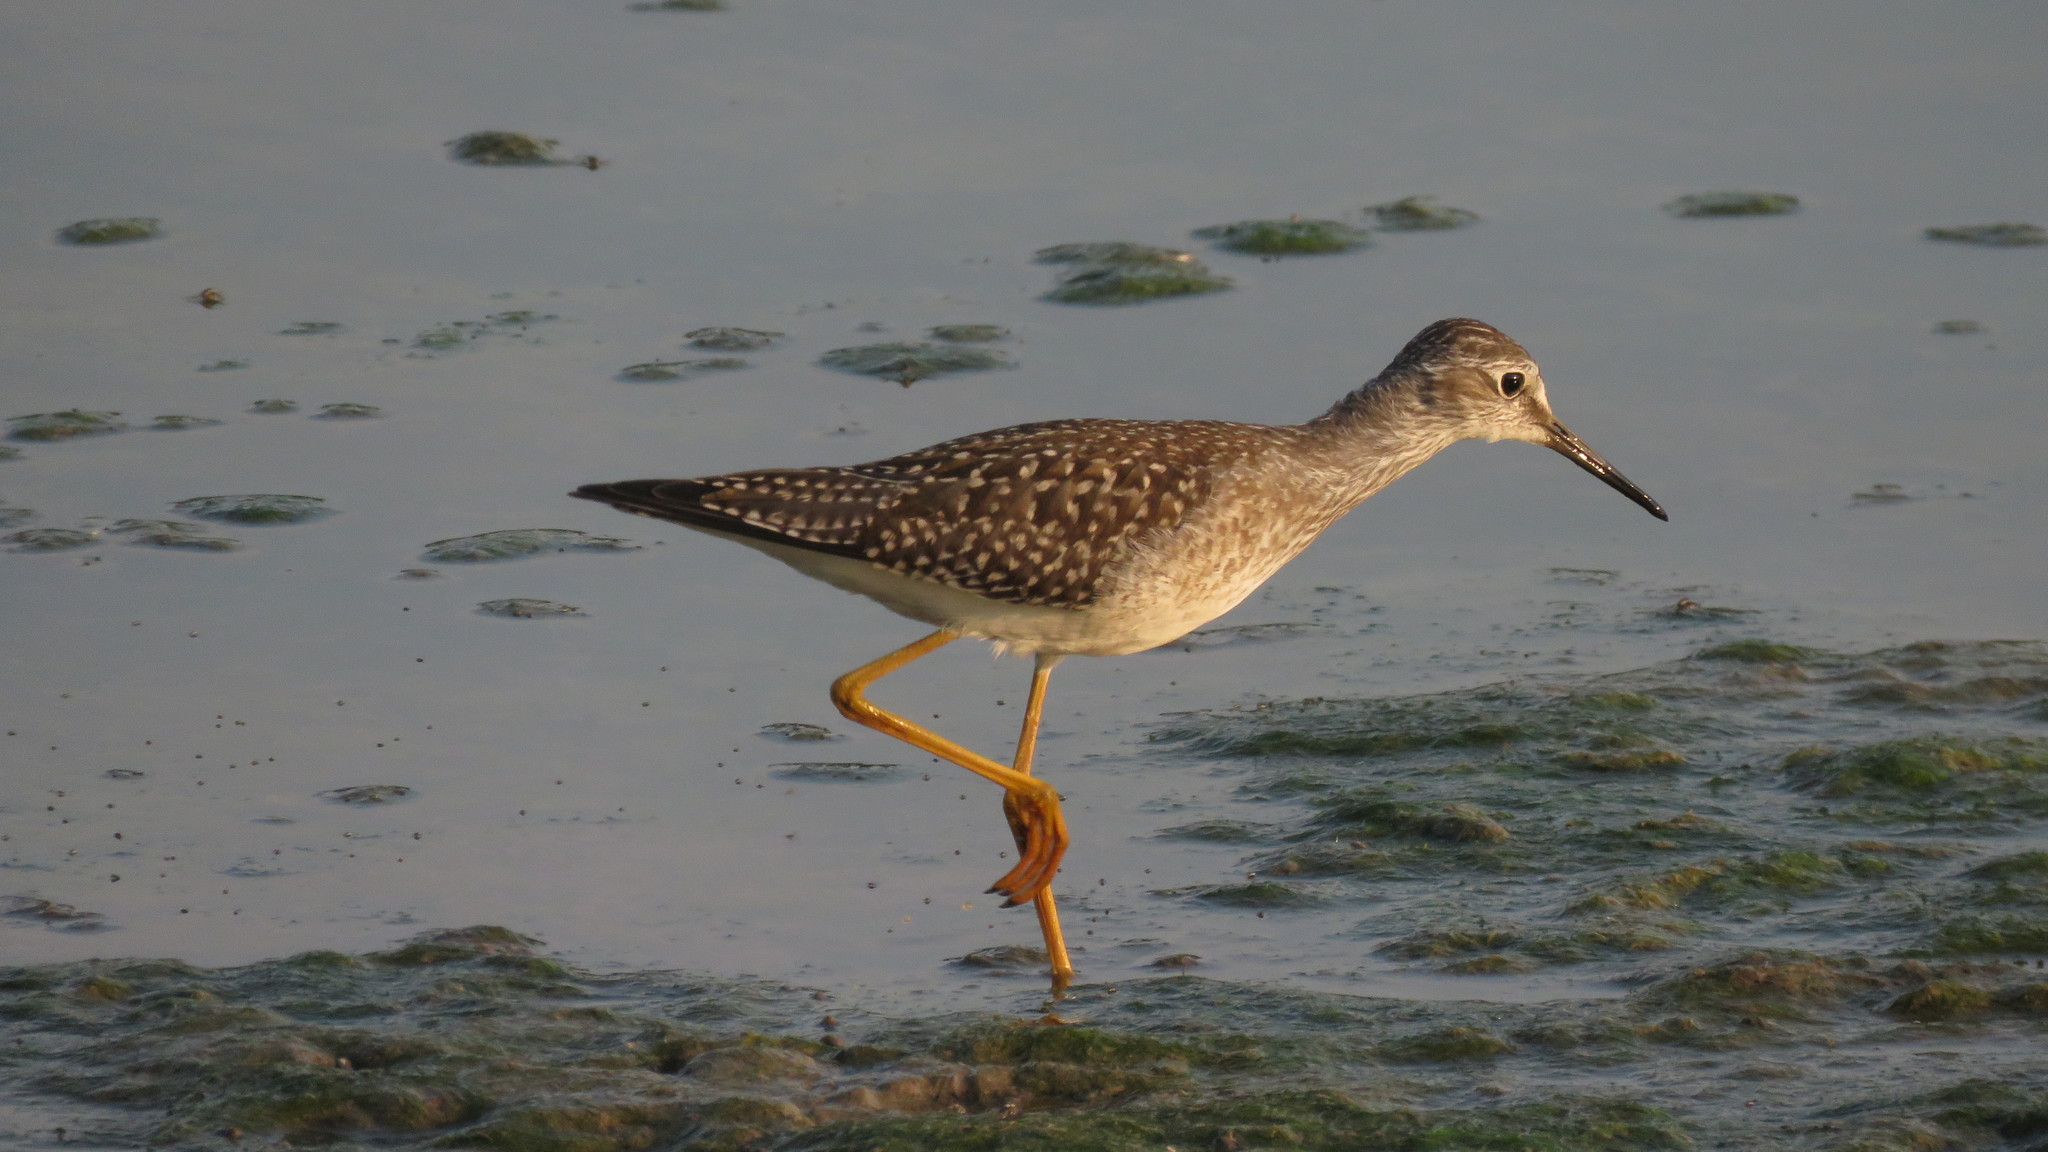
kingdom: Animalia
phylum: Chordata
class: Aves
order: Charadriiformes
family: Scolopacidae
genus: Tringa
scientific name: Tringa flavipes
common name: Lesser yellowlegs
